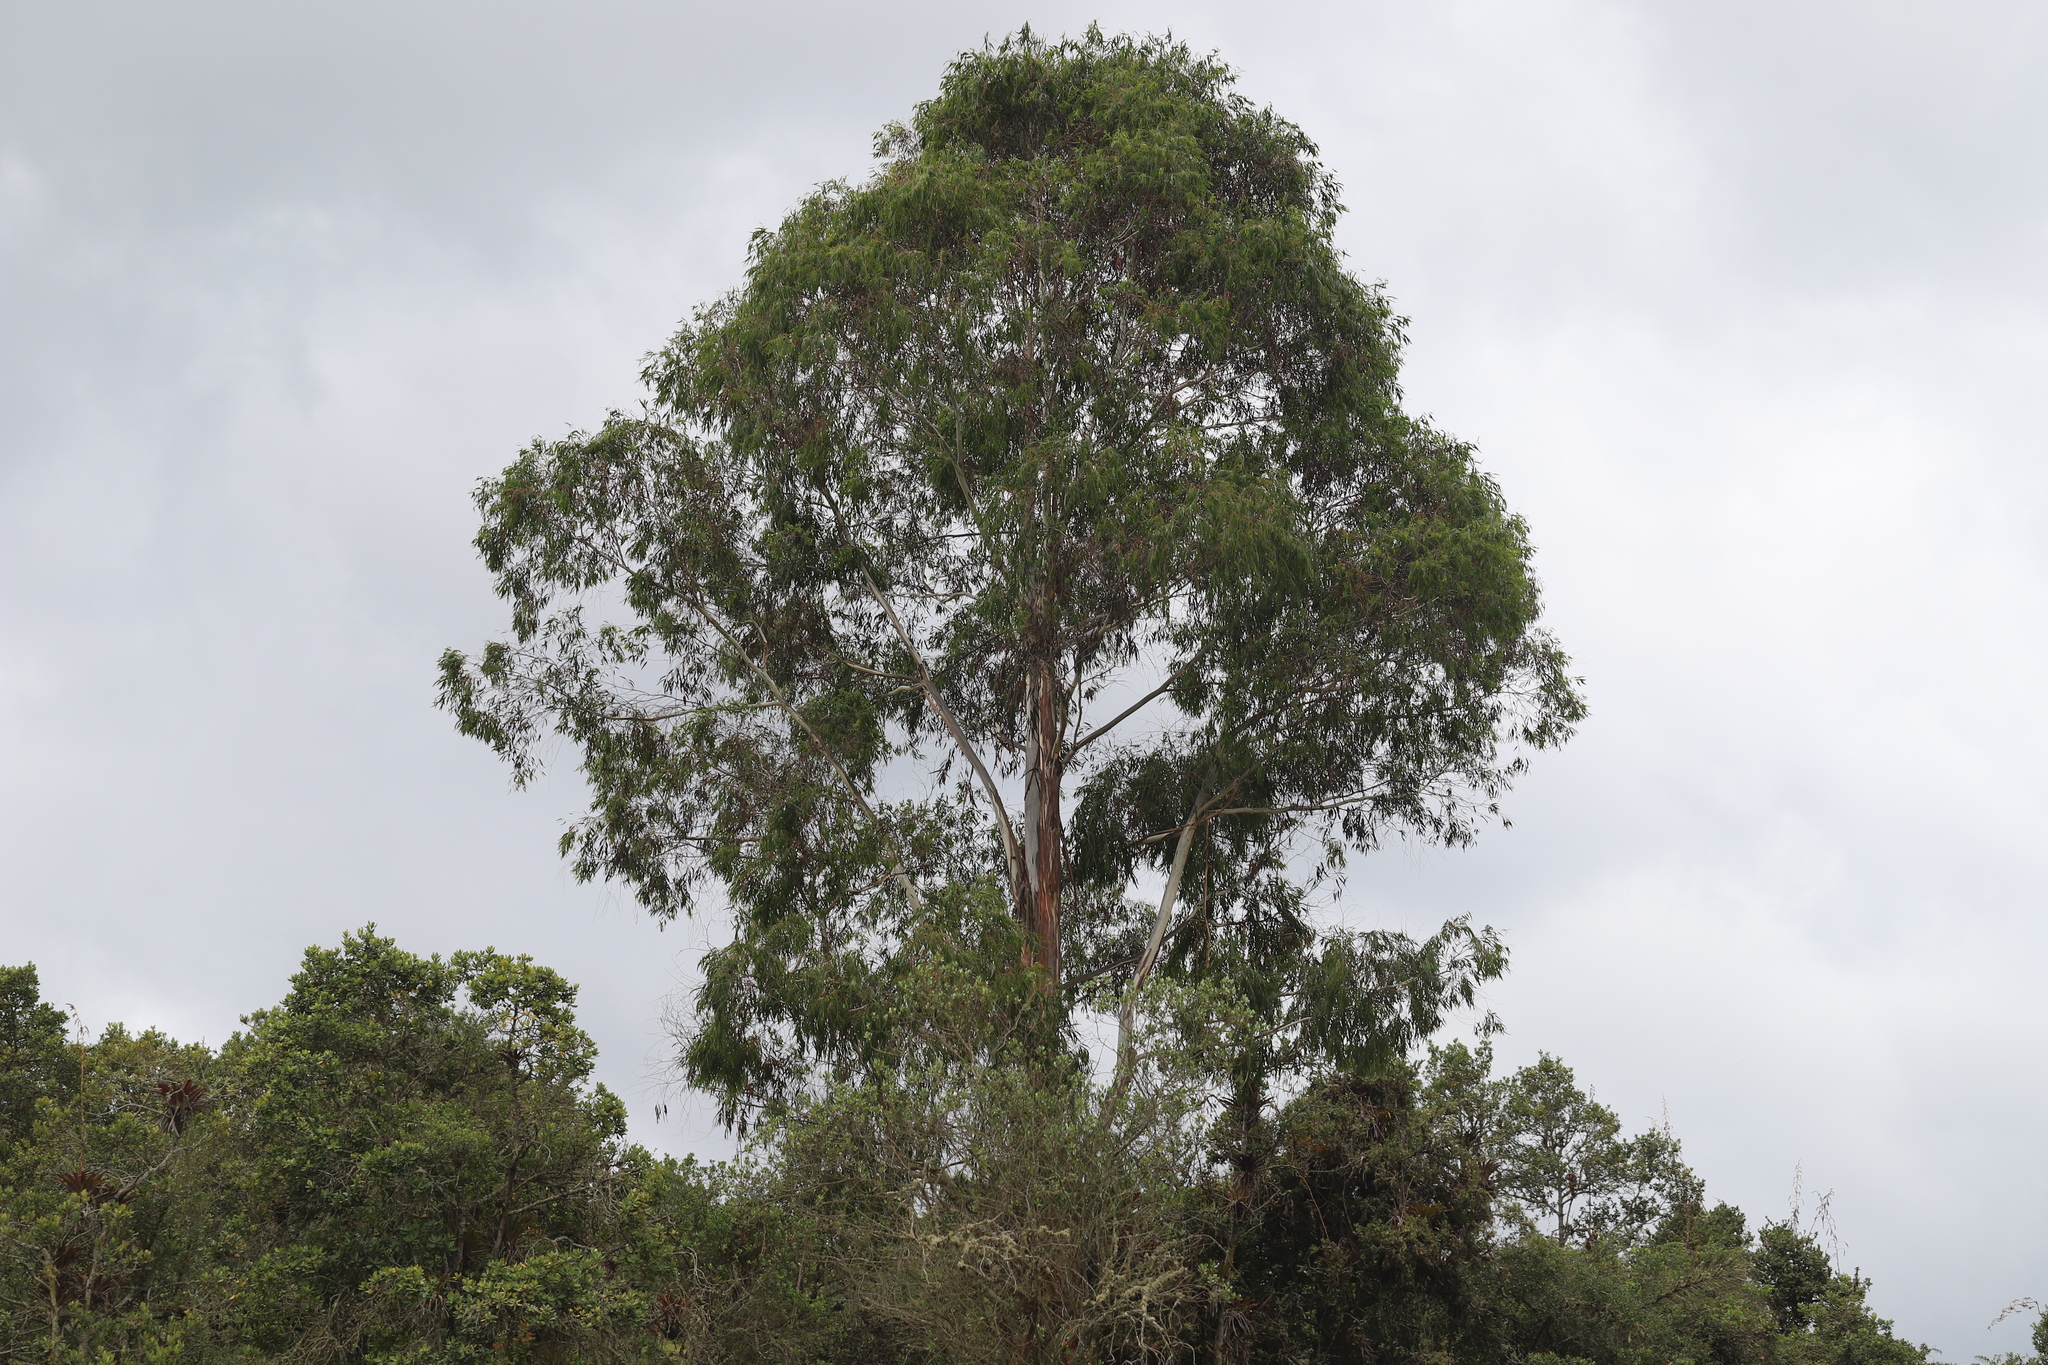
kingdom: Plantae
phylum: Tracheophyta
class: Magnoliopsida
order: Myrtales
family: Myrtaceae
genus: Eucalyptus
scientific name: Eucalyptus globulus
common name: Southern blue-gum
